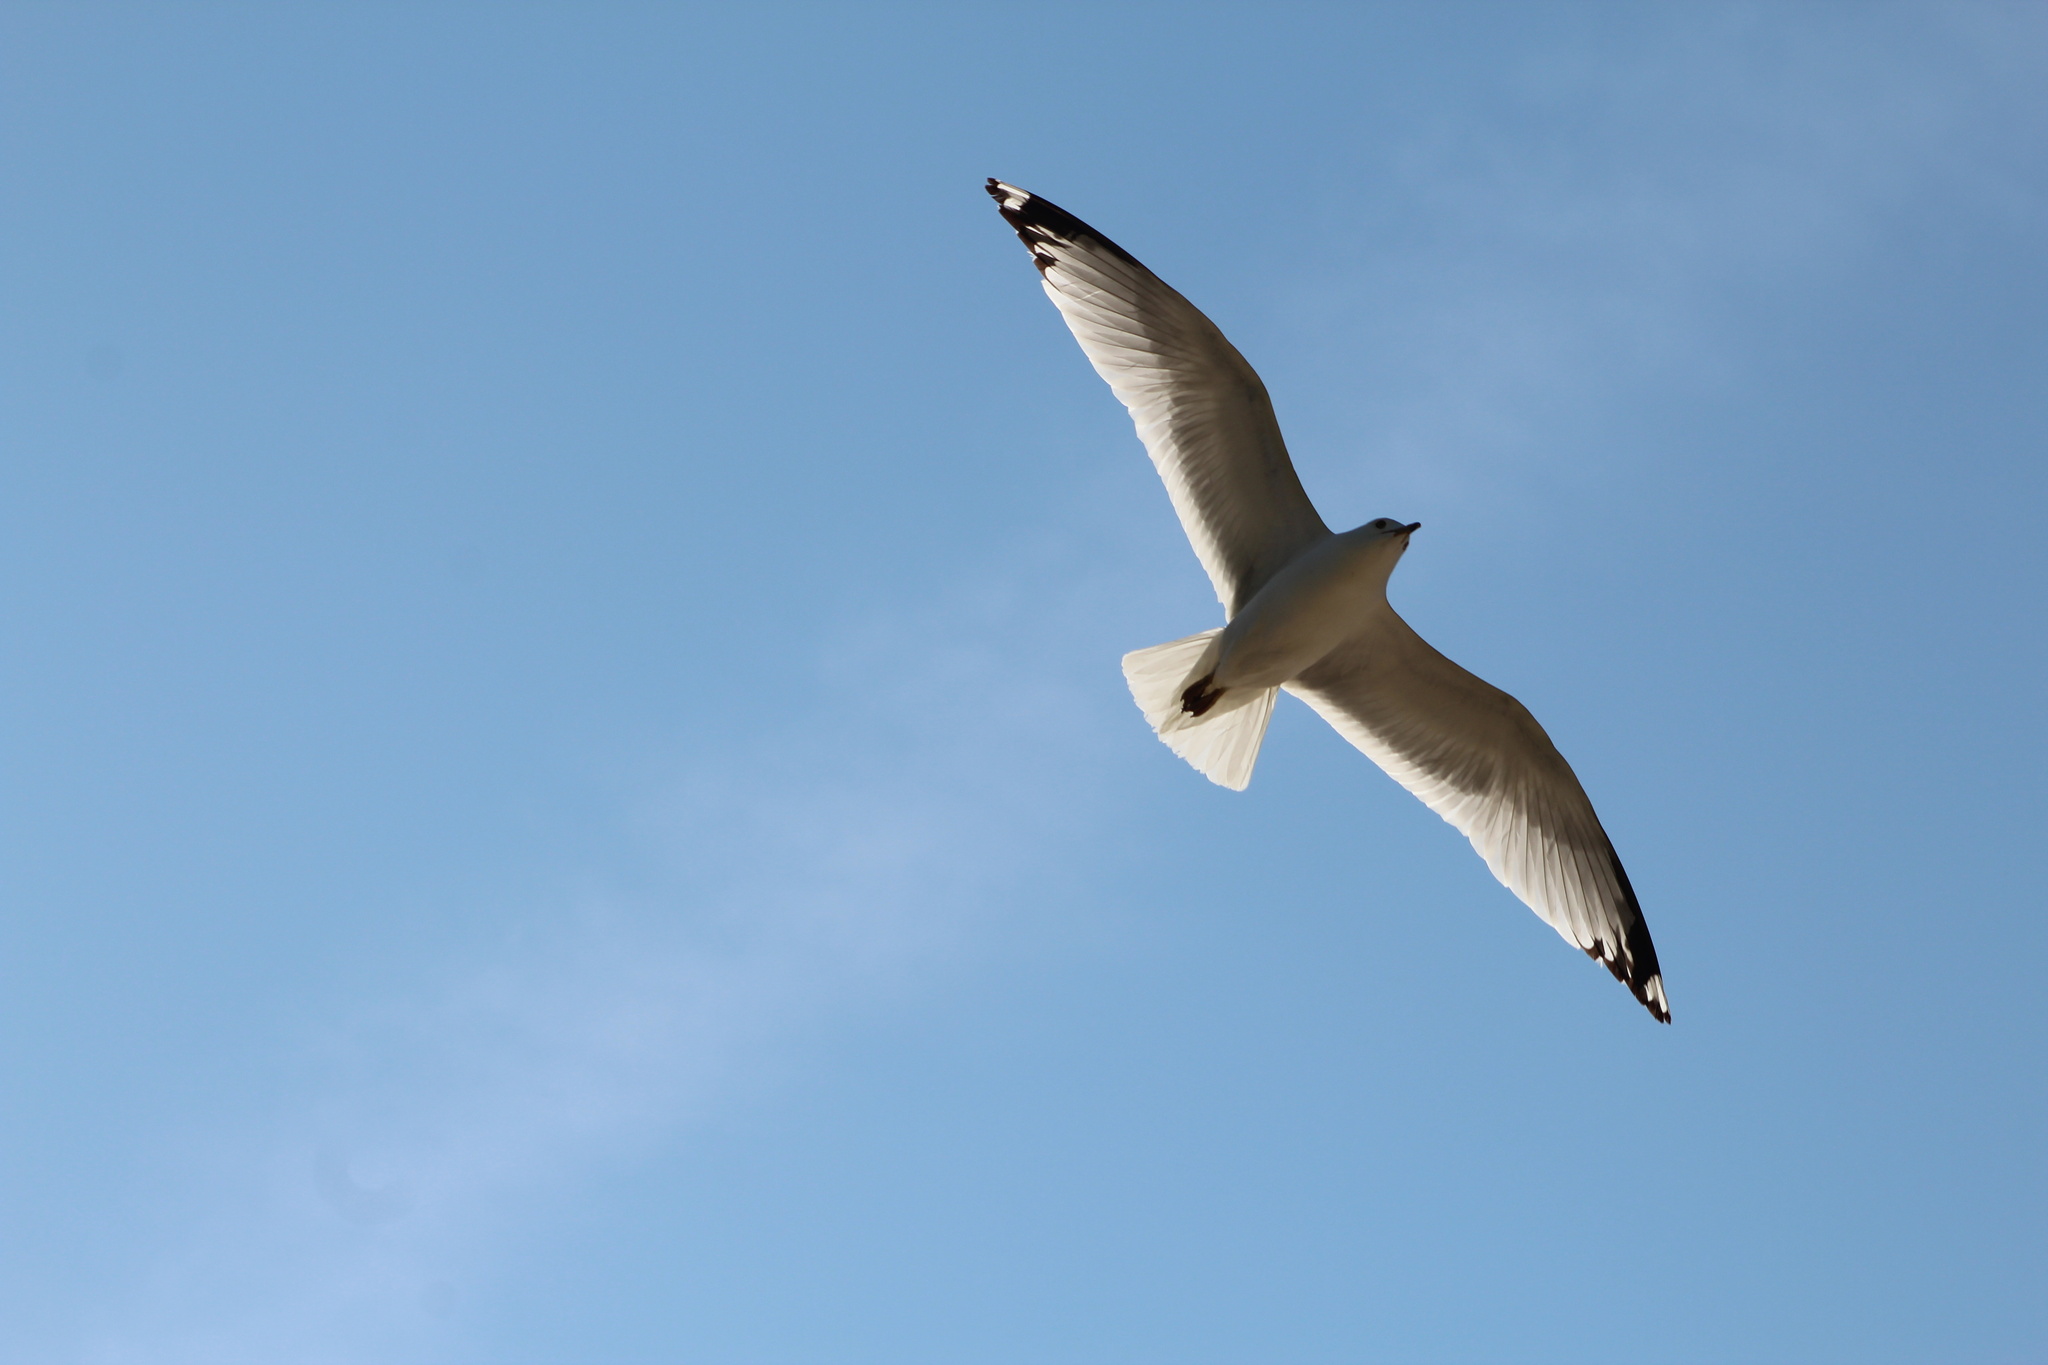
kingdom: Animalia
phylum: Chordata
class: Aves
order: Charadriiformes
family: Laridae
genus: Larus
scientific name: Larus delawarensis
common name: Ring-billed gull
